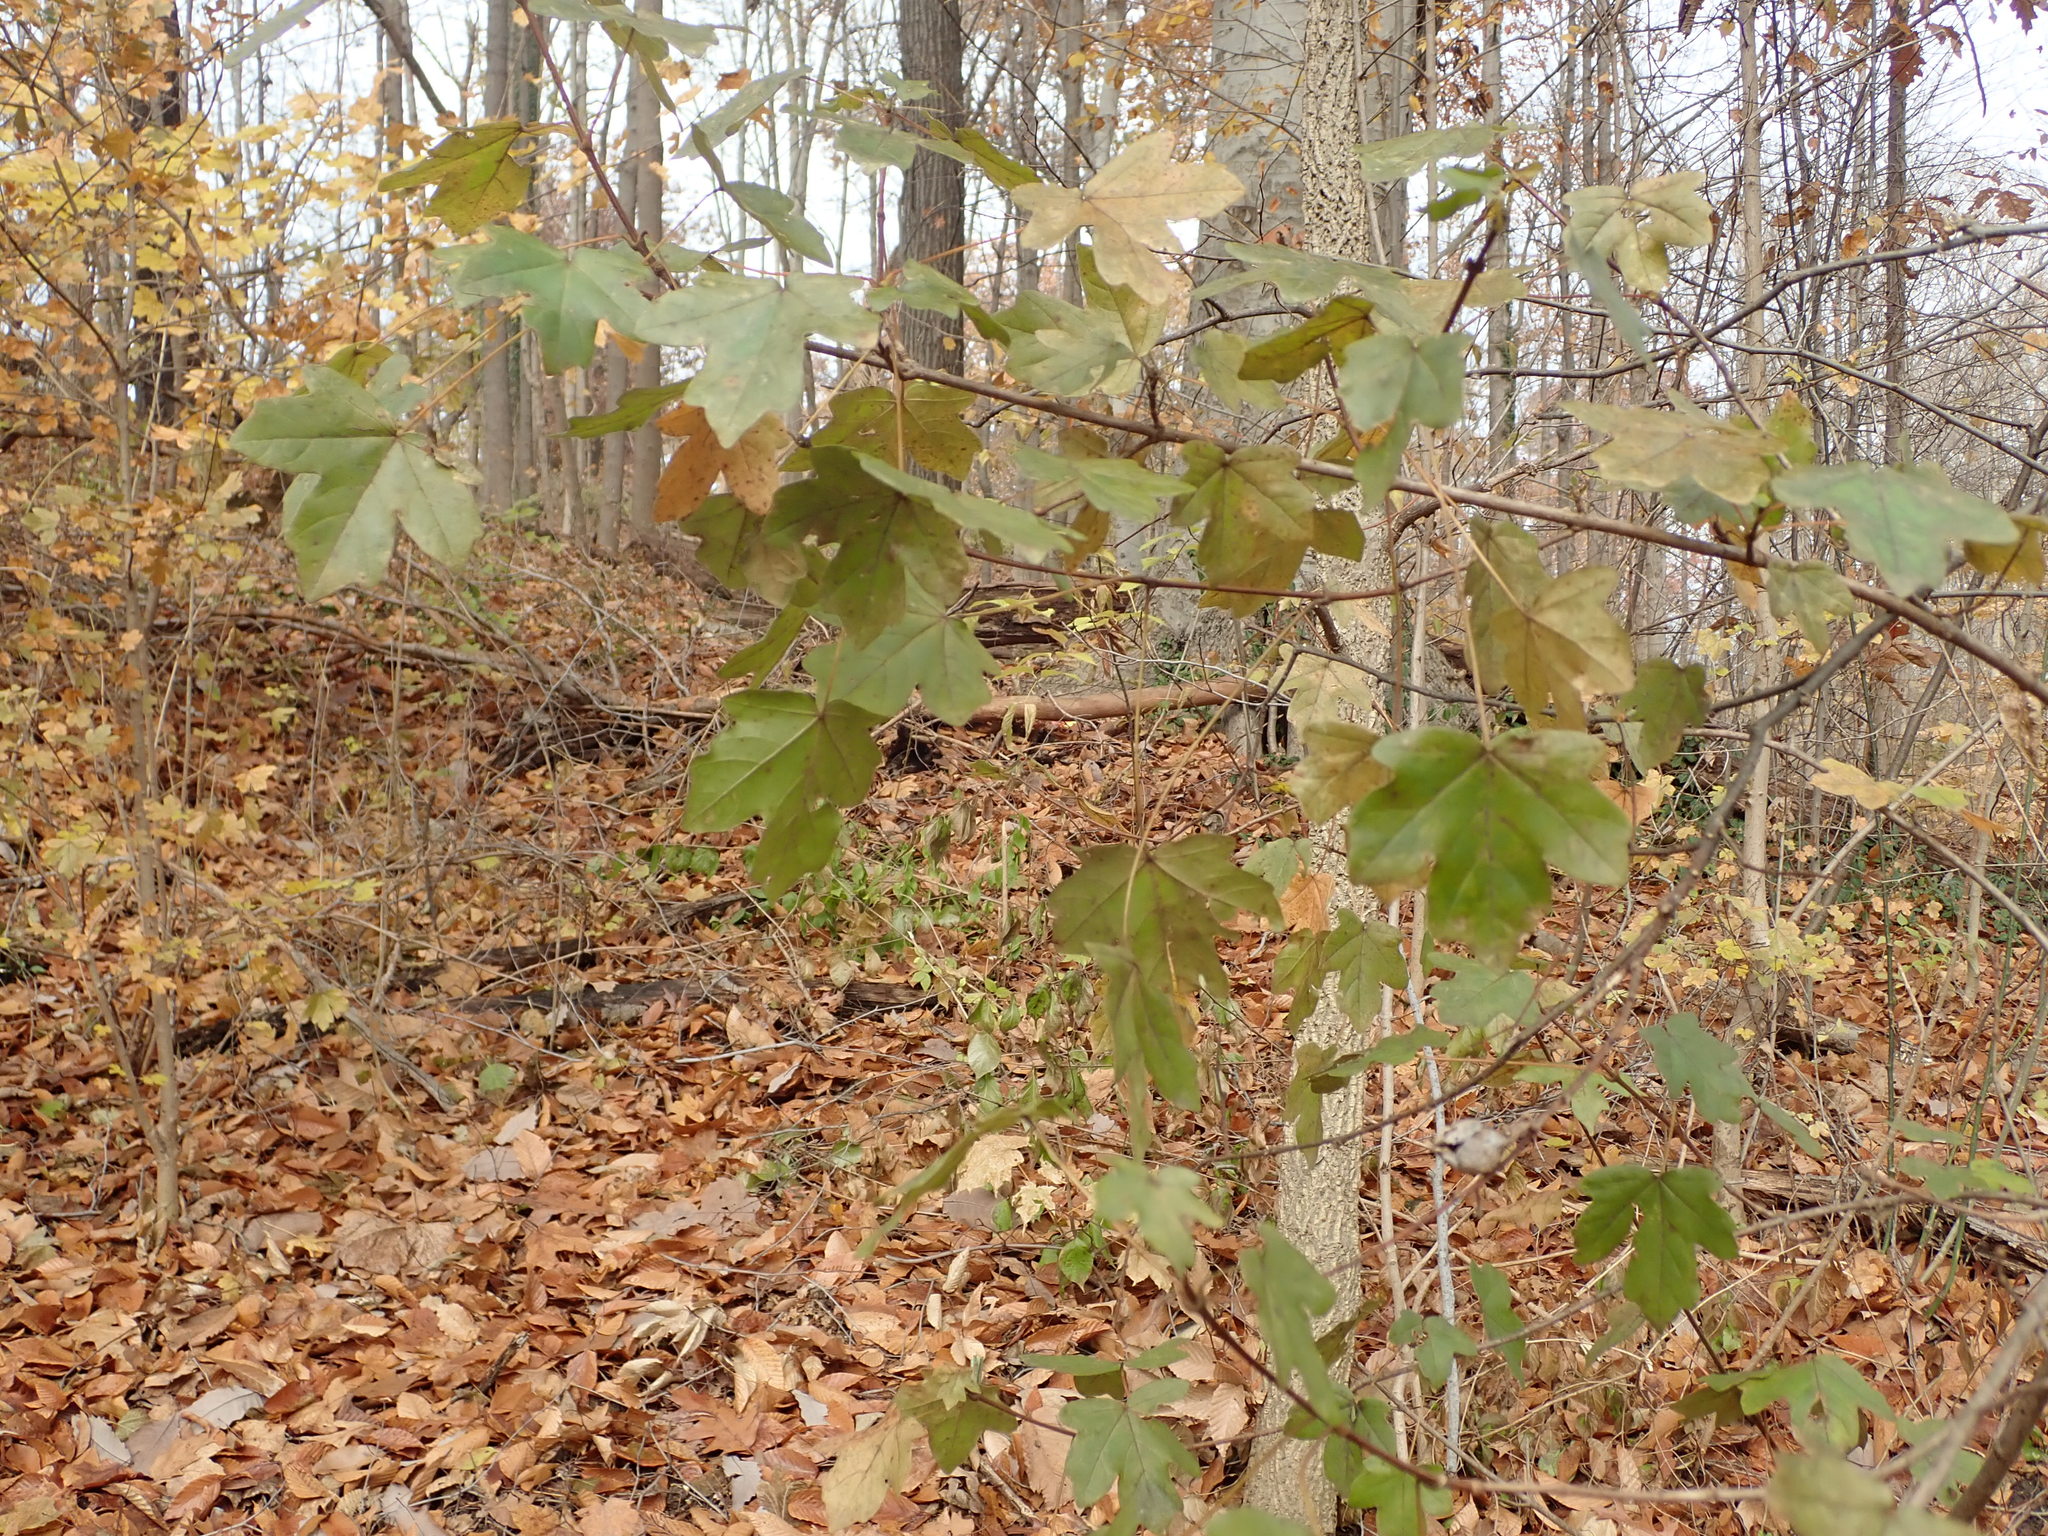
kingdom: Plantae
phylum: Tracheophyta
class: Magnoliopsida
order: Sapindales
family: Sapindaceae
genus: Acer
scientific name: Acer campestre
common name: Field maple
